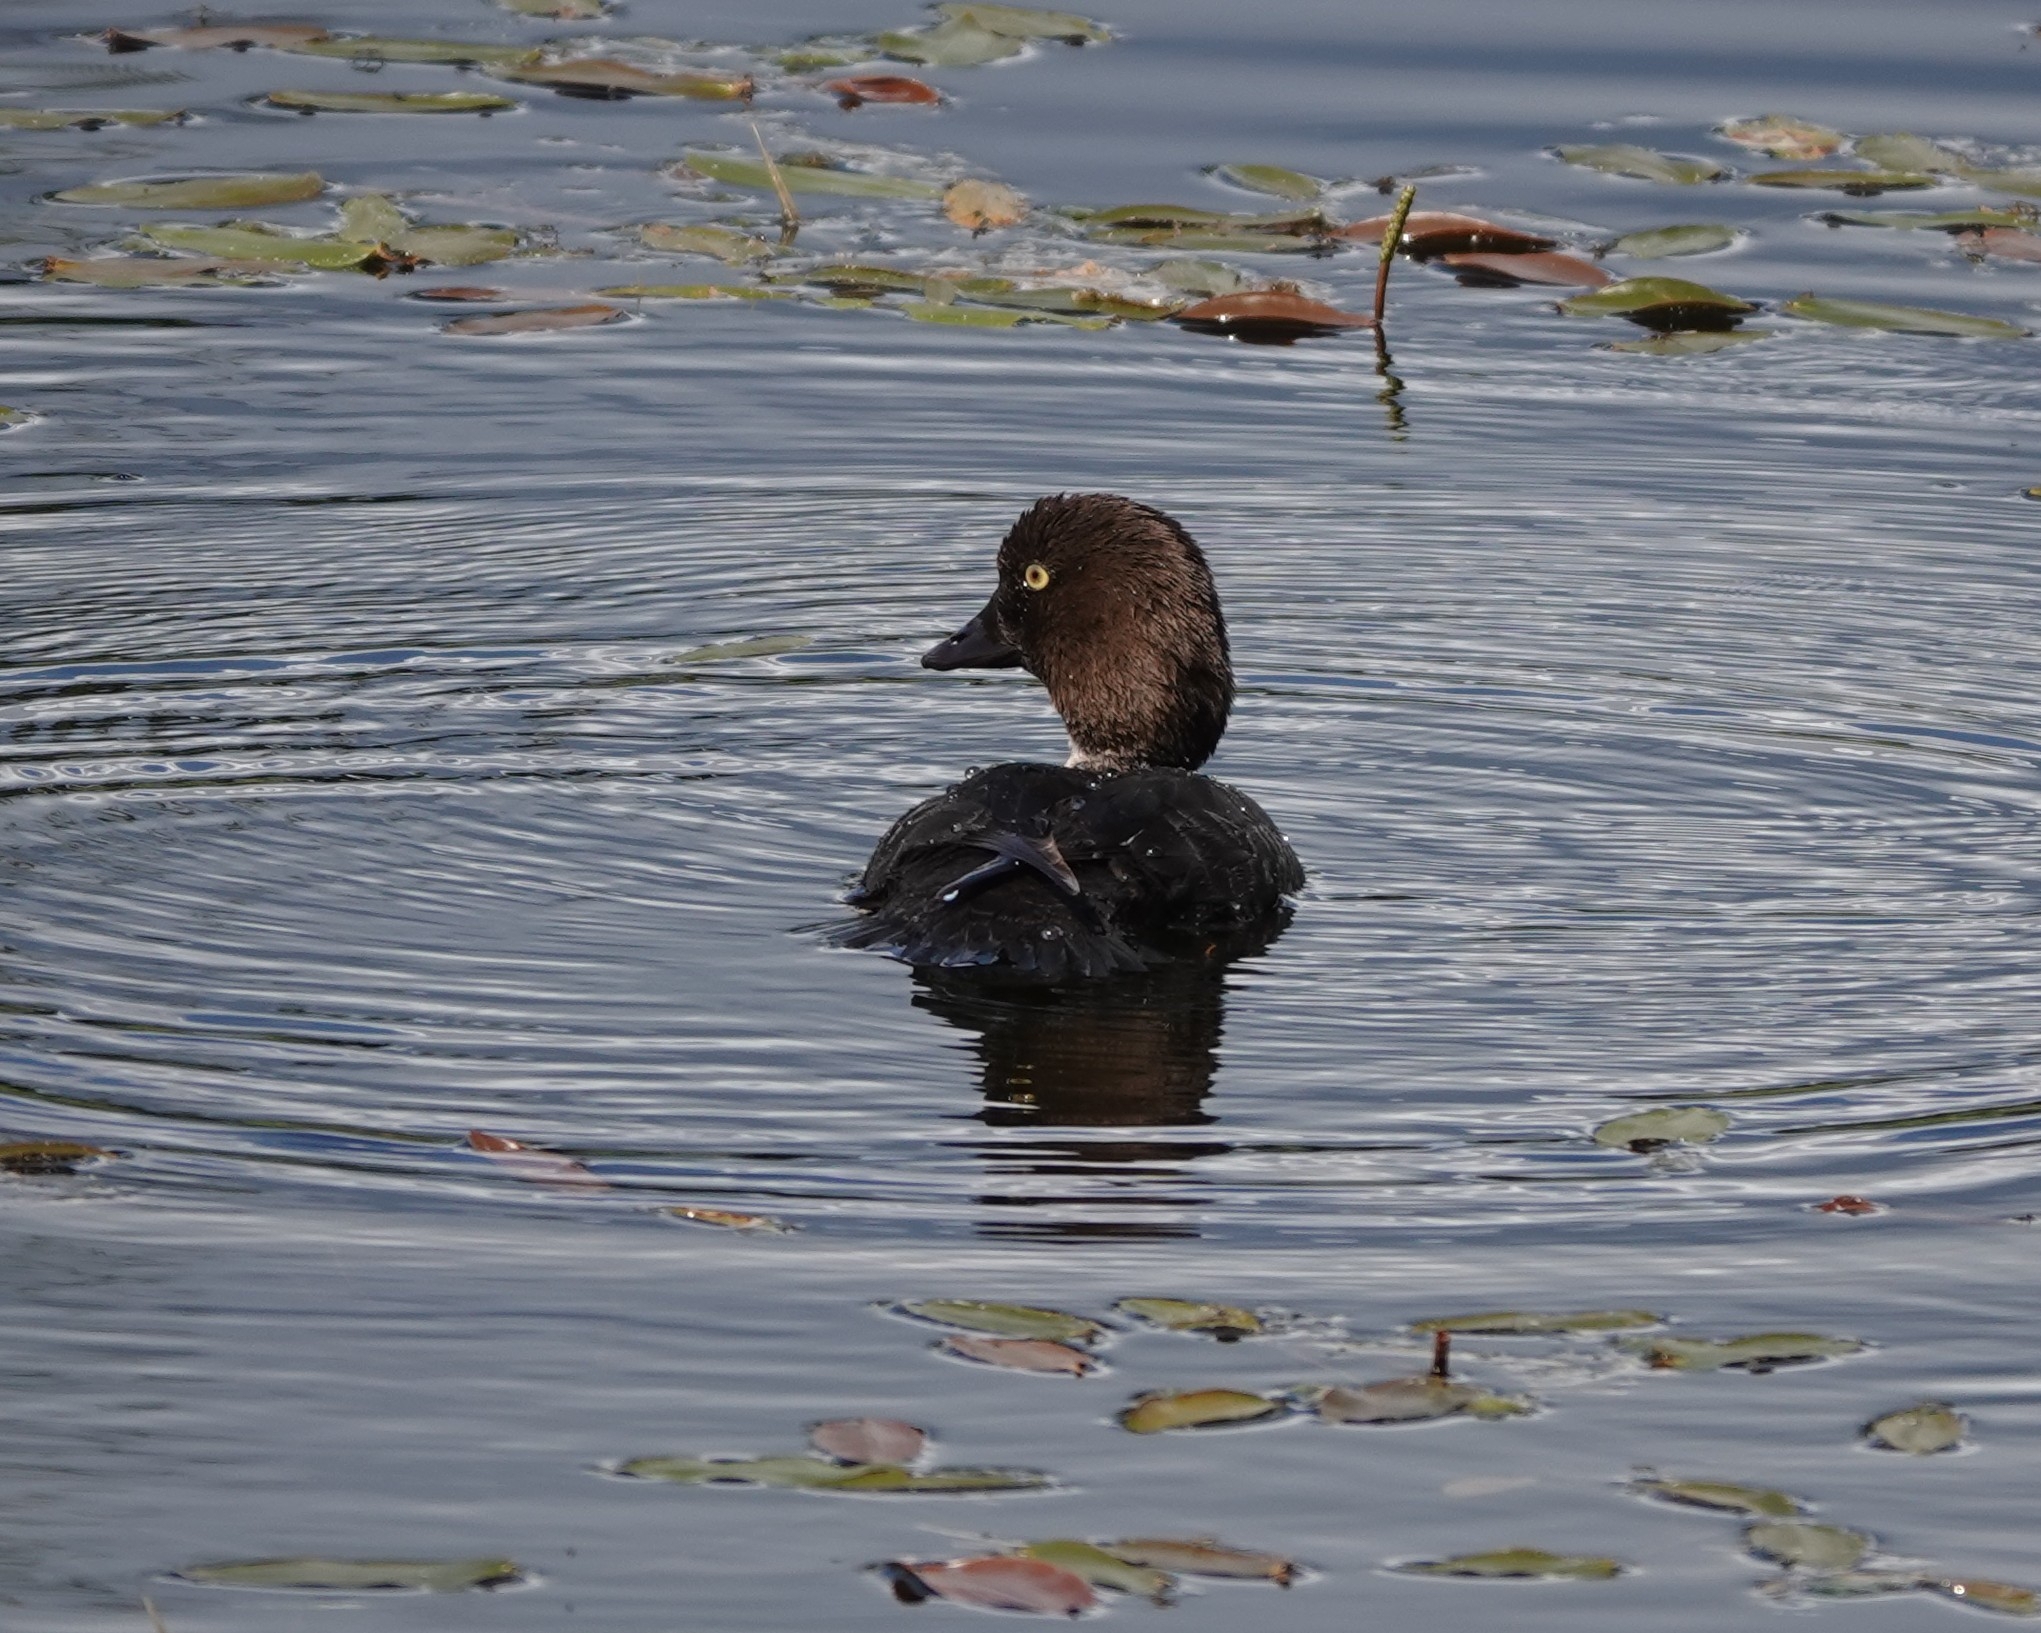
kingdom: Animalia
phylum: Chordata
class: Aves
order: Anseriformes
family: Anatidae
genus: Bucephala
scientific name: Bucephala clangula
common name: Common goldeneye
